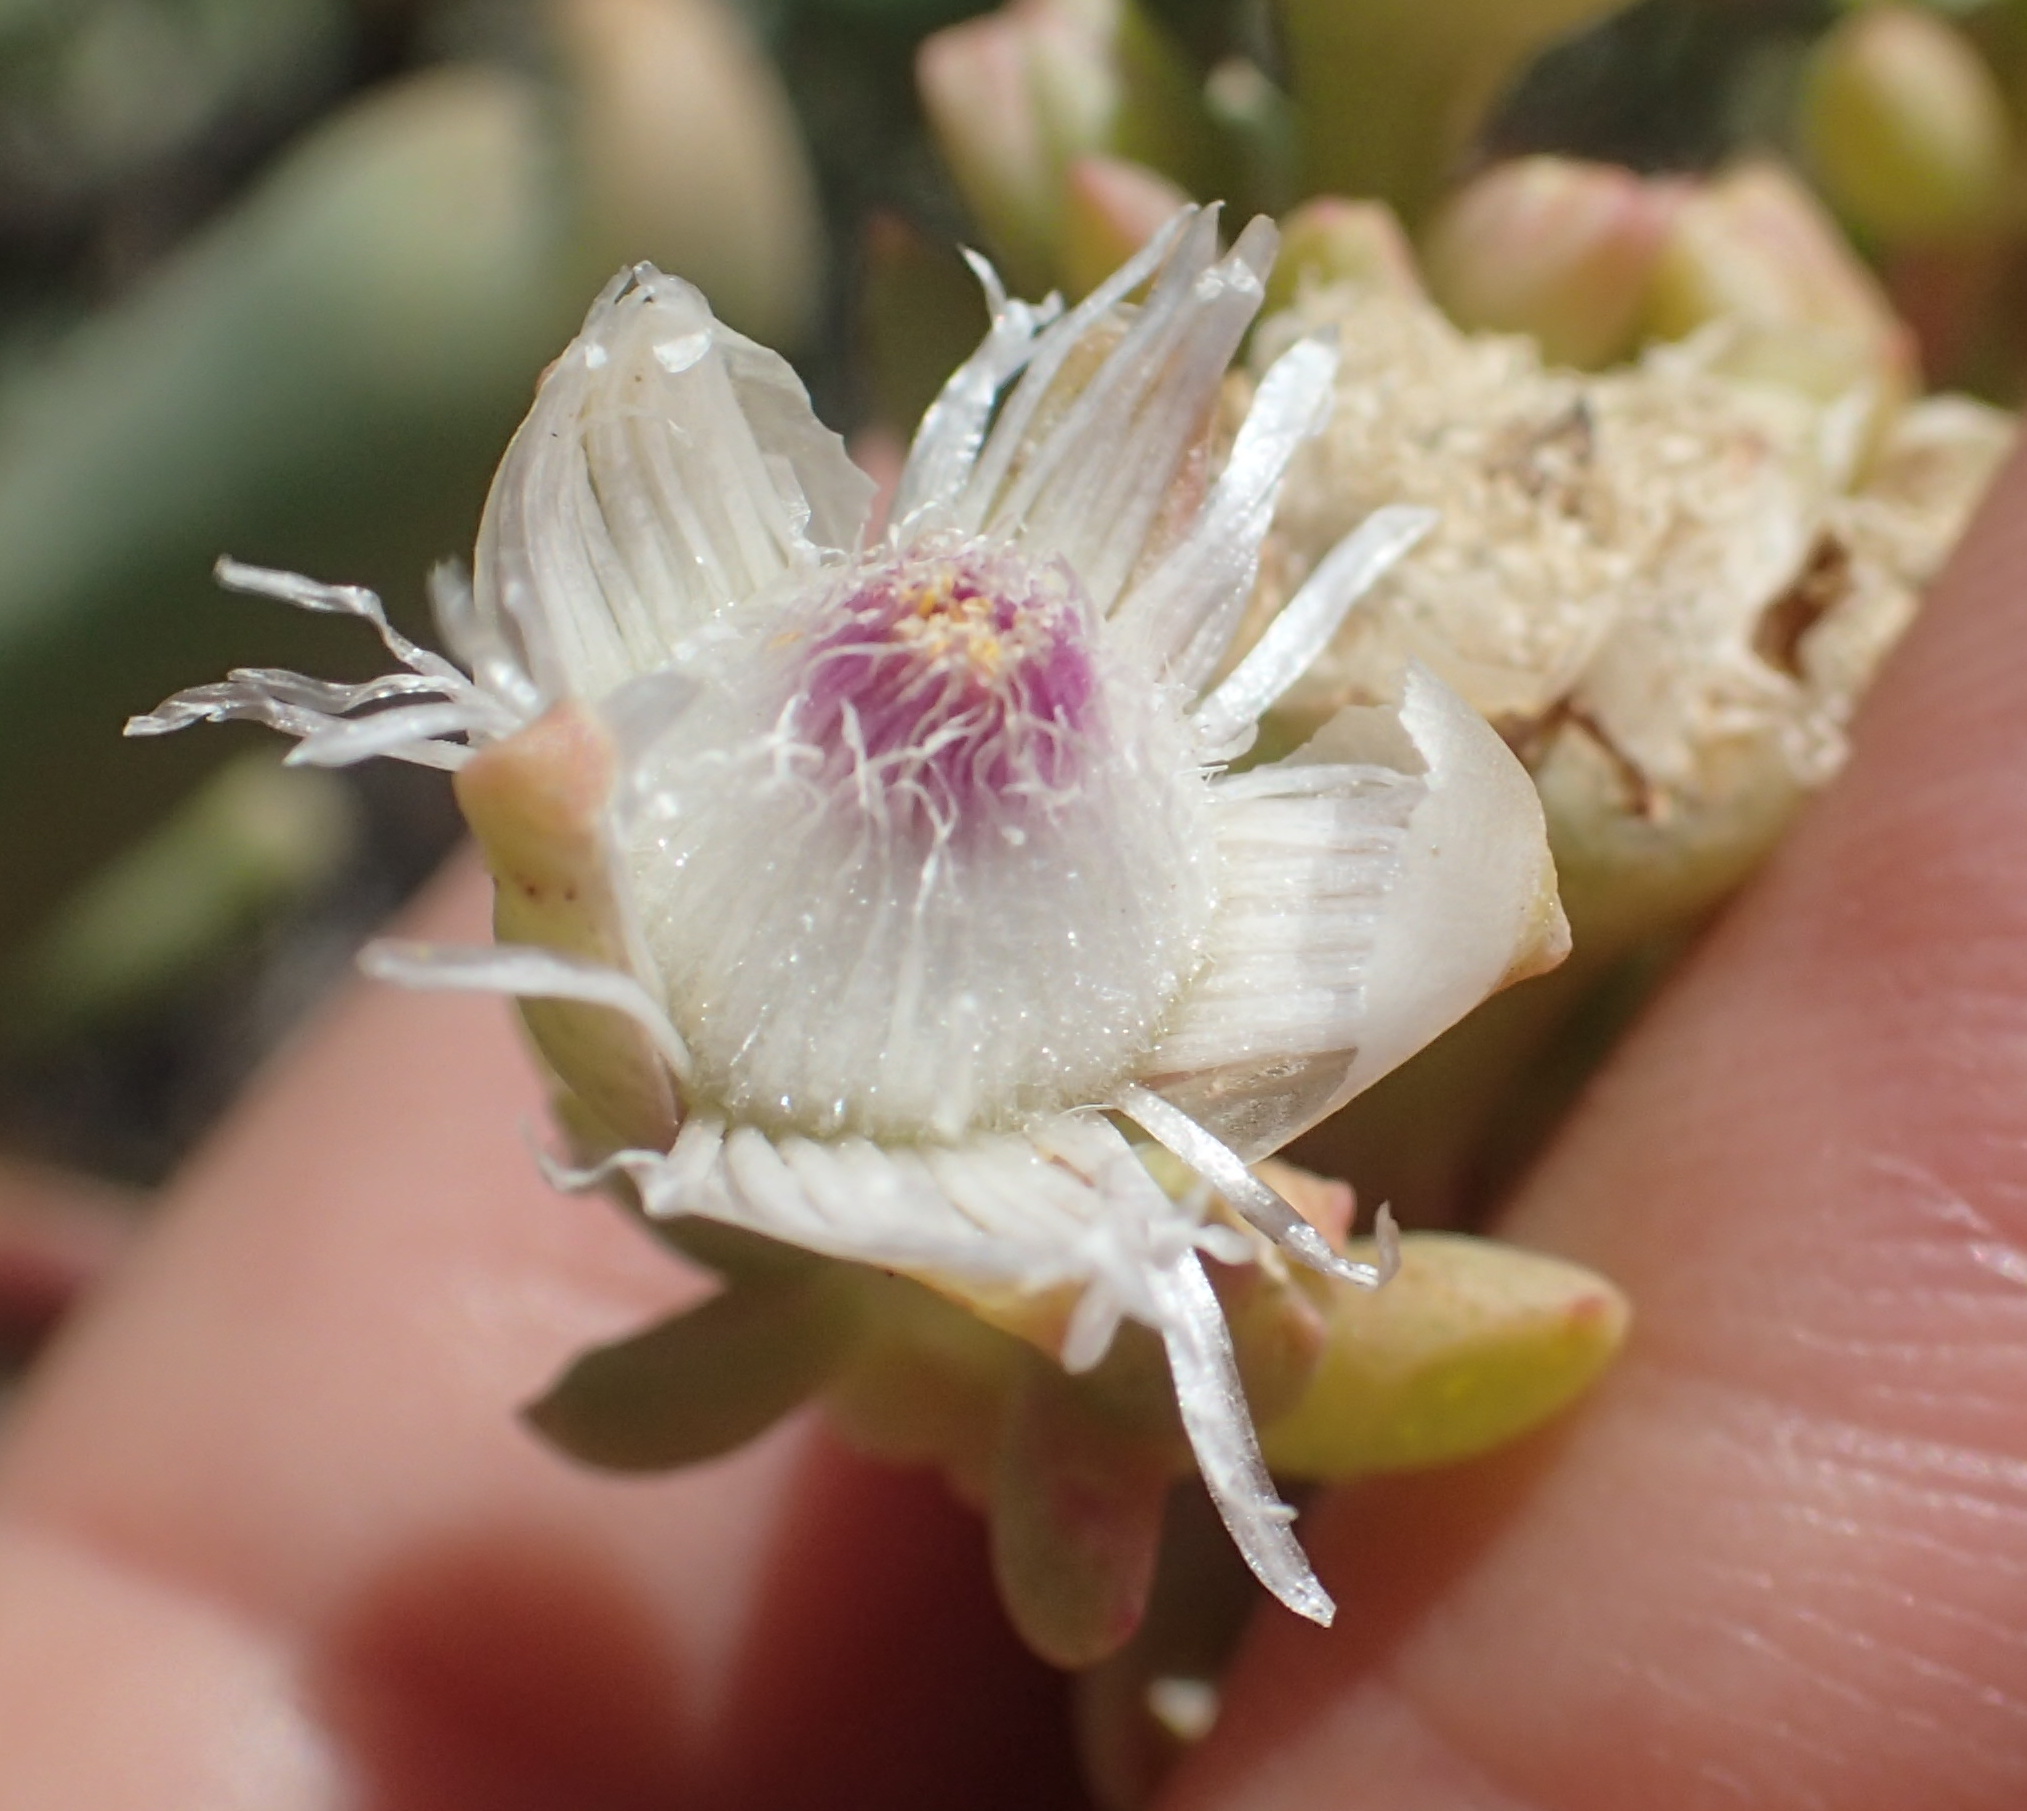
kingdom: Plantae
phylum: Tracheophyta
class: Magnoliopsida
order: Caryophyllales
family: Aizoaceae
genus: Stoeberia
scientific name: Stoeberia frutescens
